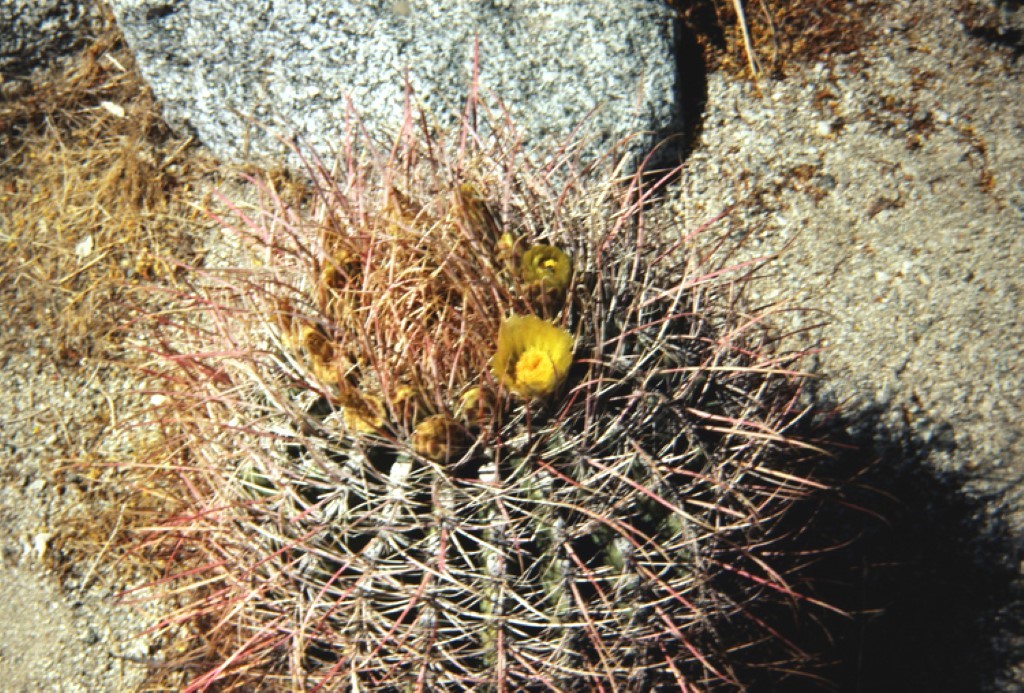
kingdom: Plantae
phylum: Tracheophyta
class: Magnoliopsida
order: Caryophyllales
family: Cactaceae
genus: Ferocactus
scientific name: Ferocactus cylindraceus
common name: California barrel cactus
